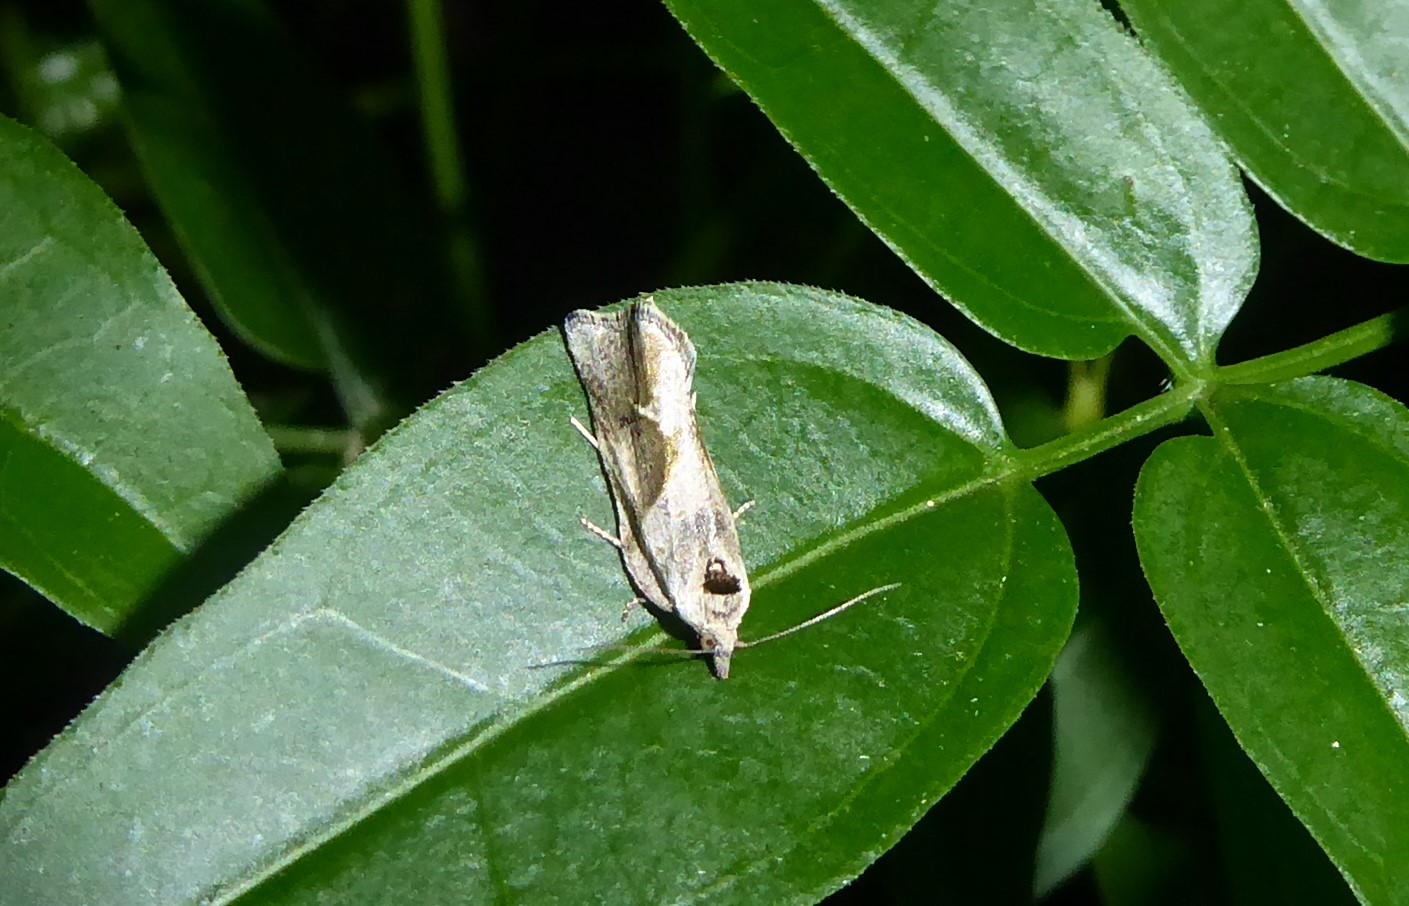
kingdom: Animalia
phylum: Arthropoda
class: Insecta
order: Lepidoptera
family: Tortricidae
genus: Pyrgotis
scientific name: Pyrgotis plagiatana
